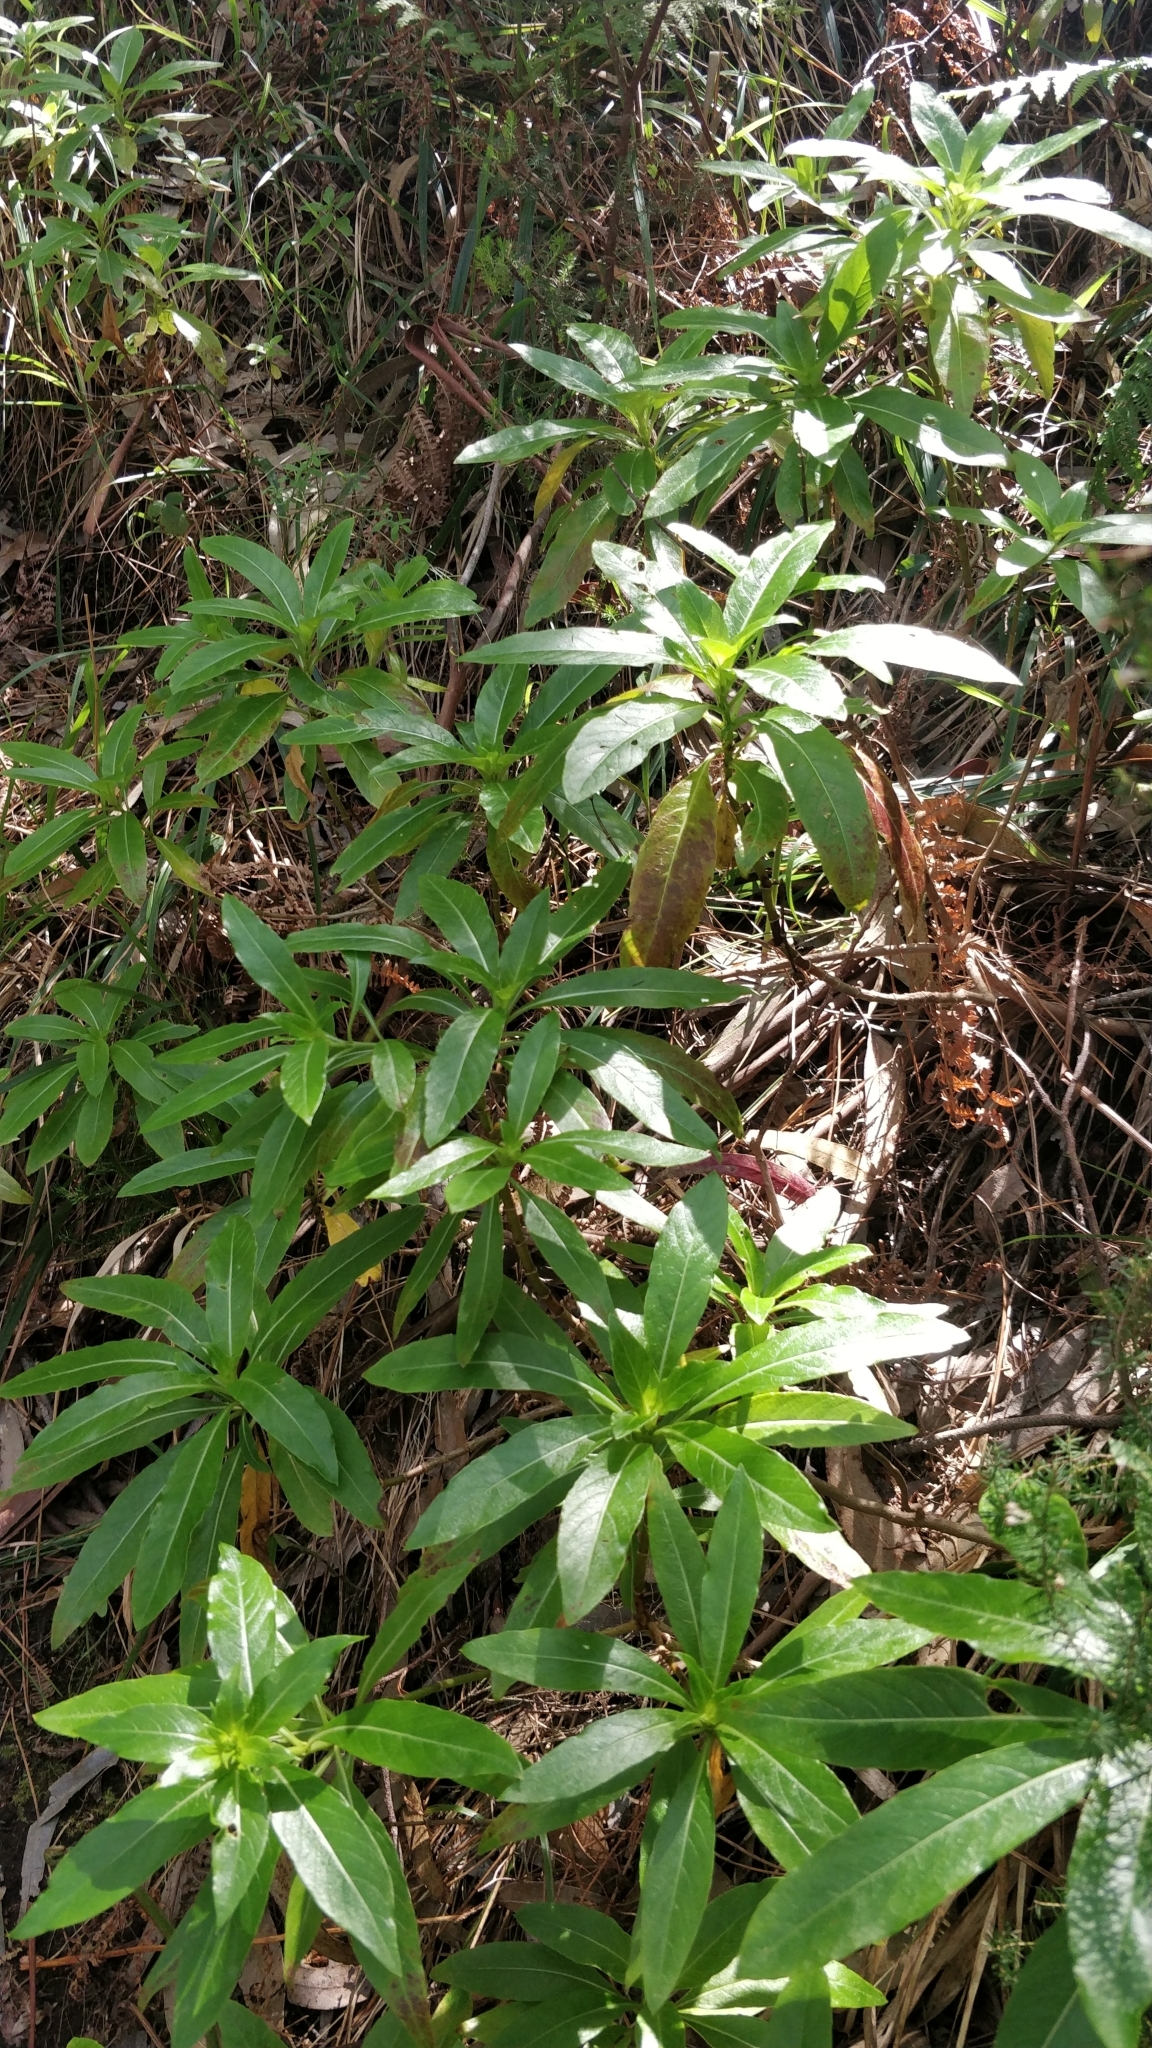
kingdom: Plantae
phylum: Tracheophyta
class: Magnoliopsida
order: Gentianales
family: Rubiaceae
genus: Phyllis
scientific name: Phyllis nobla
